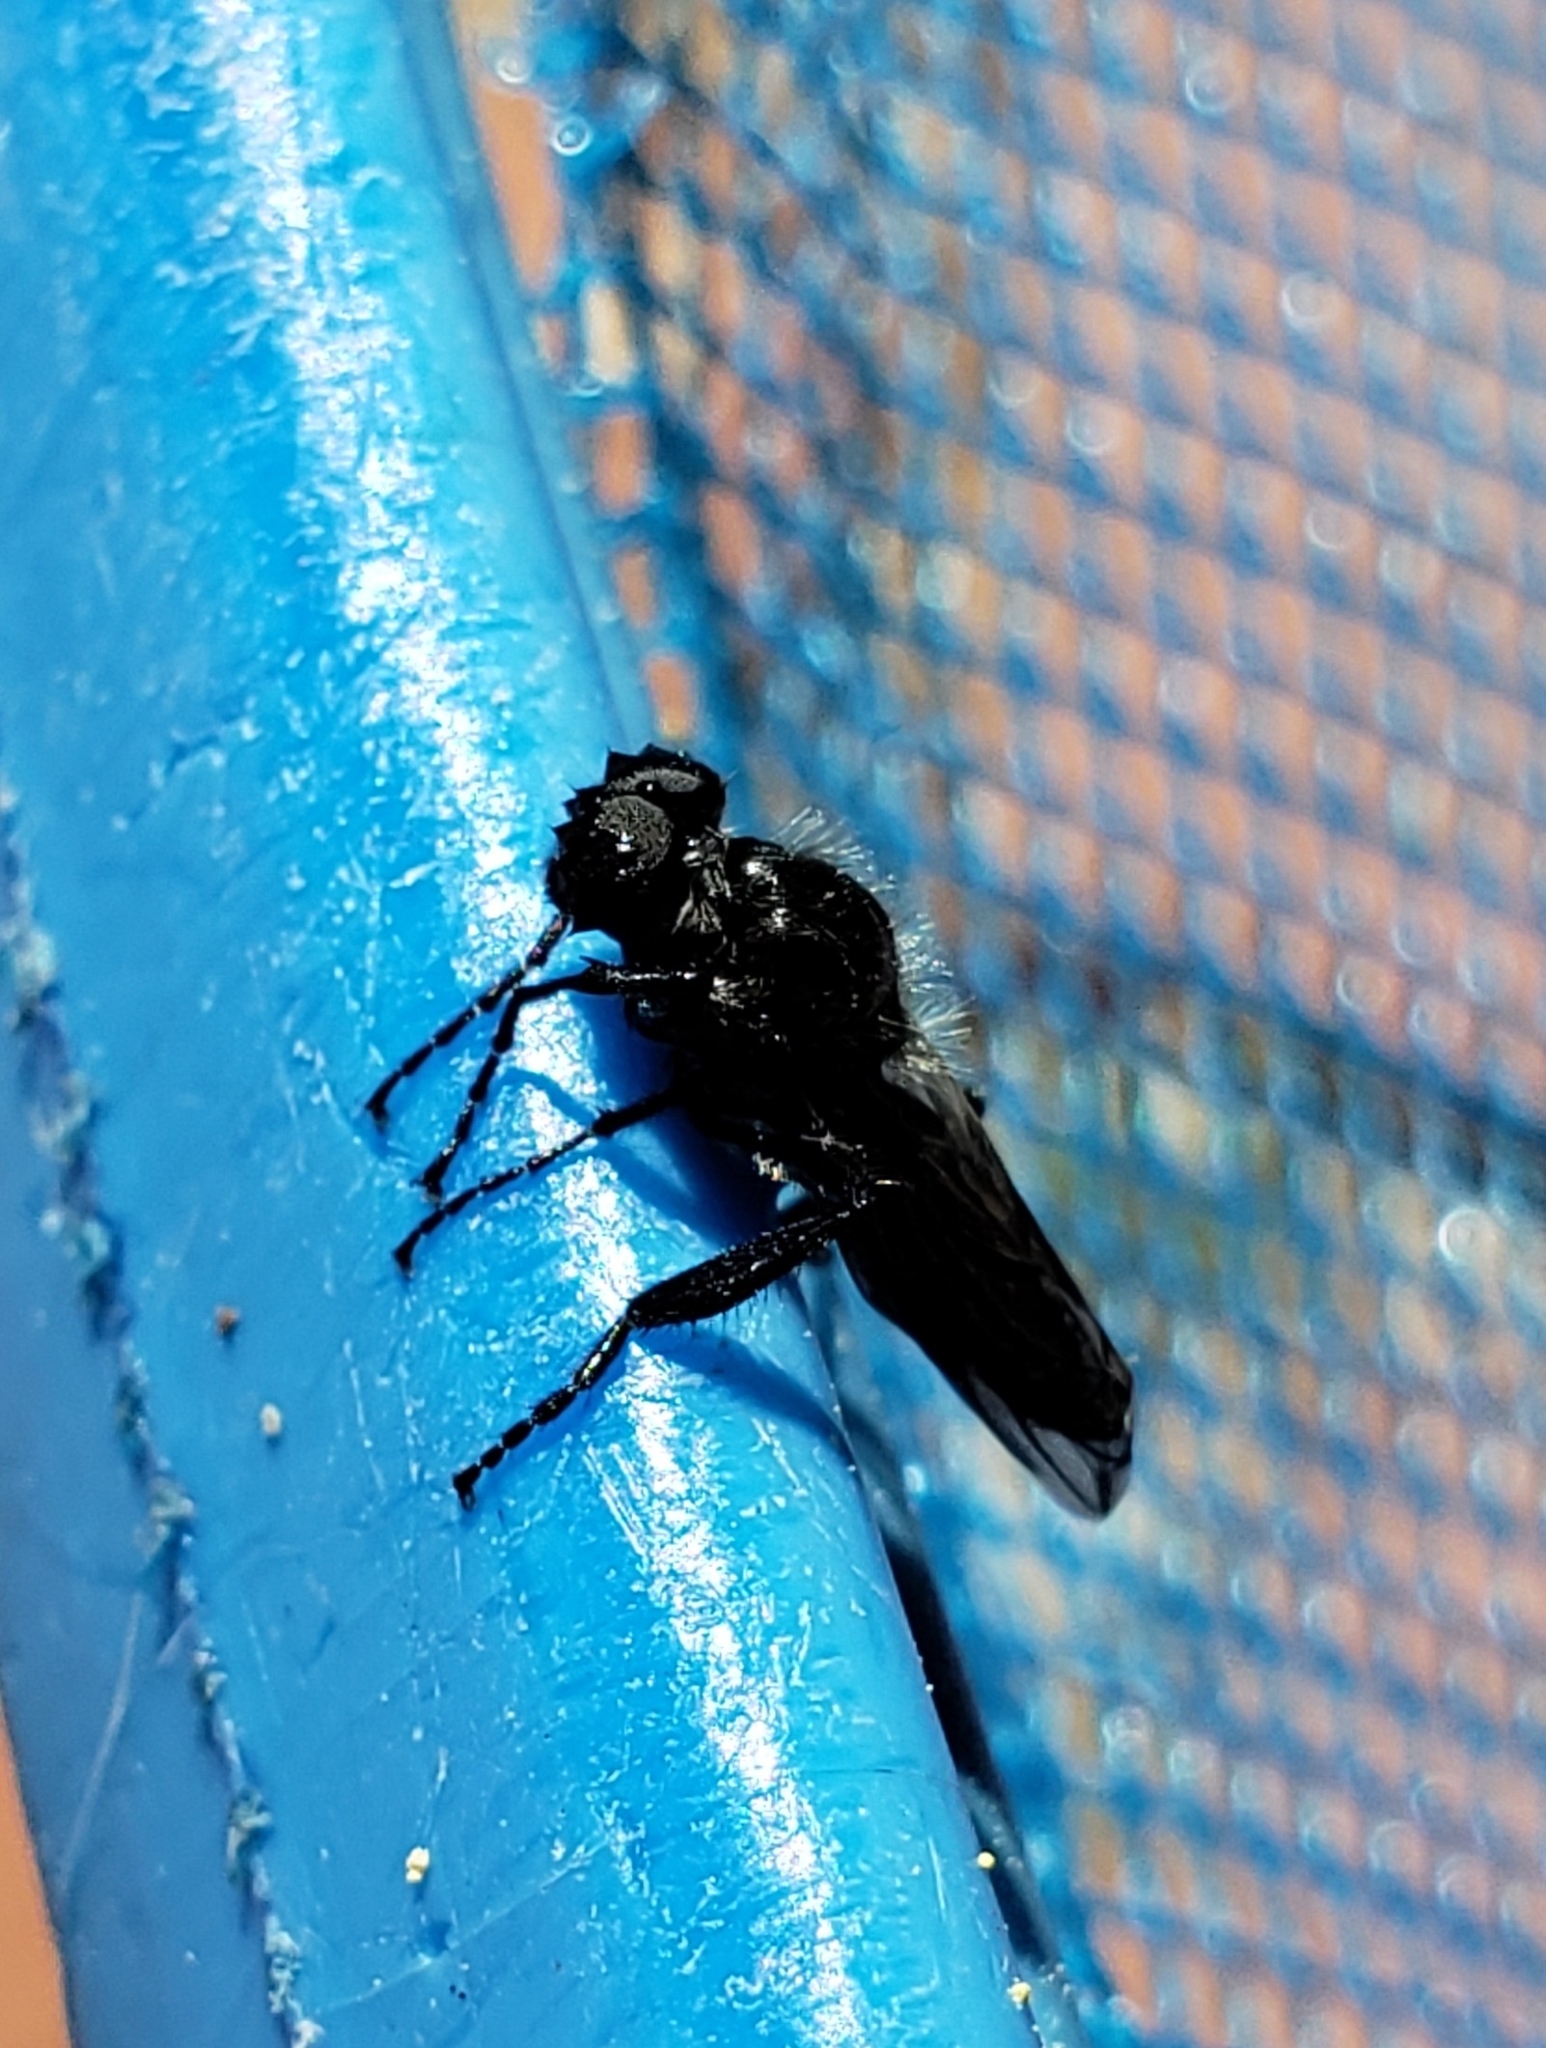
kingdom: Animalia
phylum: Arthropoda
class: Insecta
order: Diptera
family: Bibionidae
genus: Bibio
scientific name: Bibio albipennis
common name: White-winged march fly
